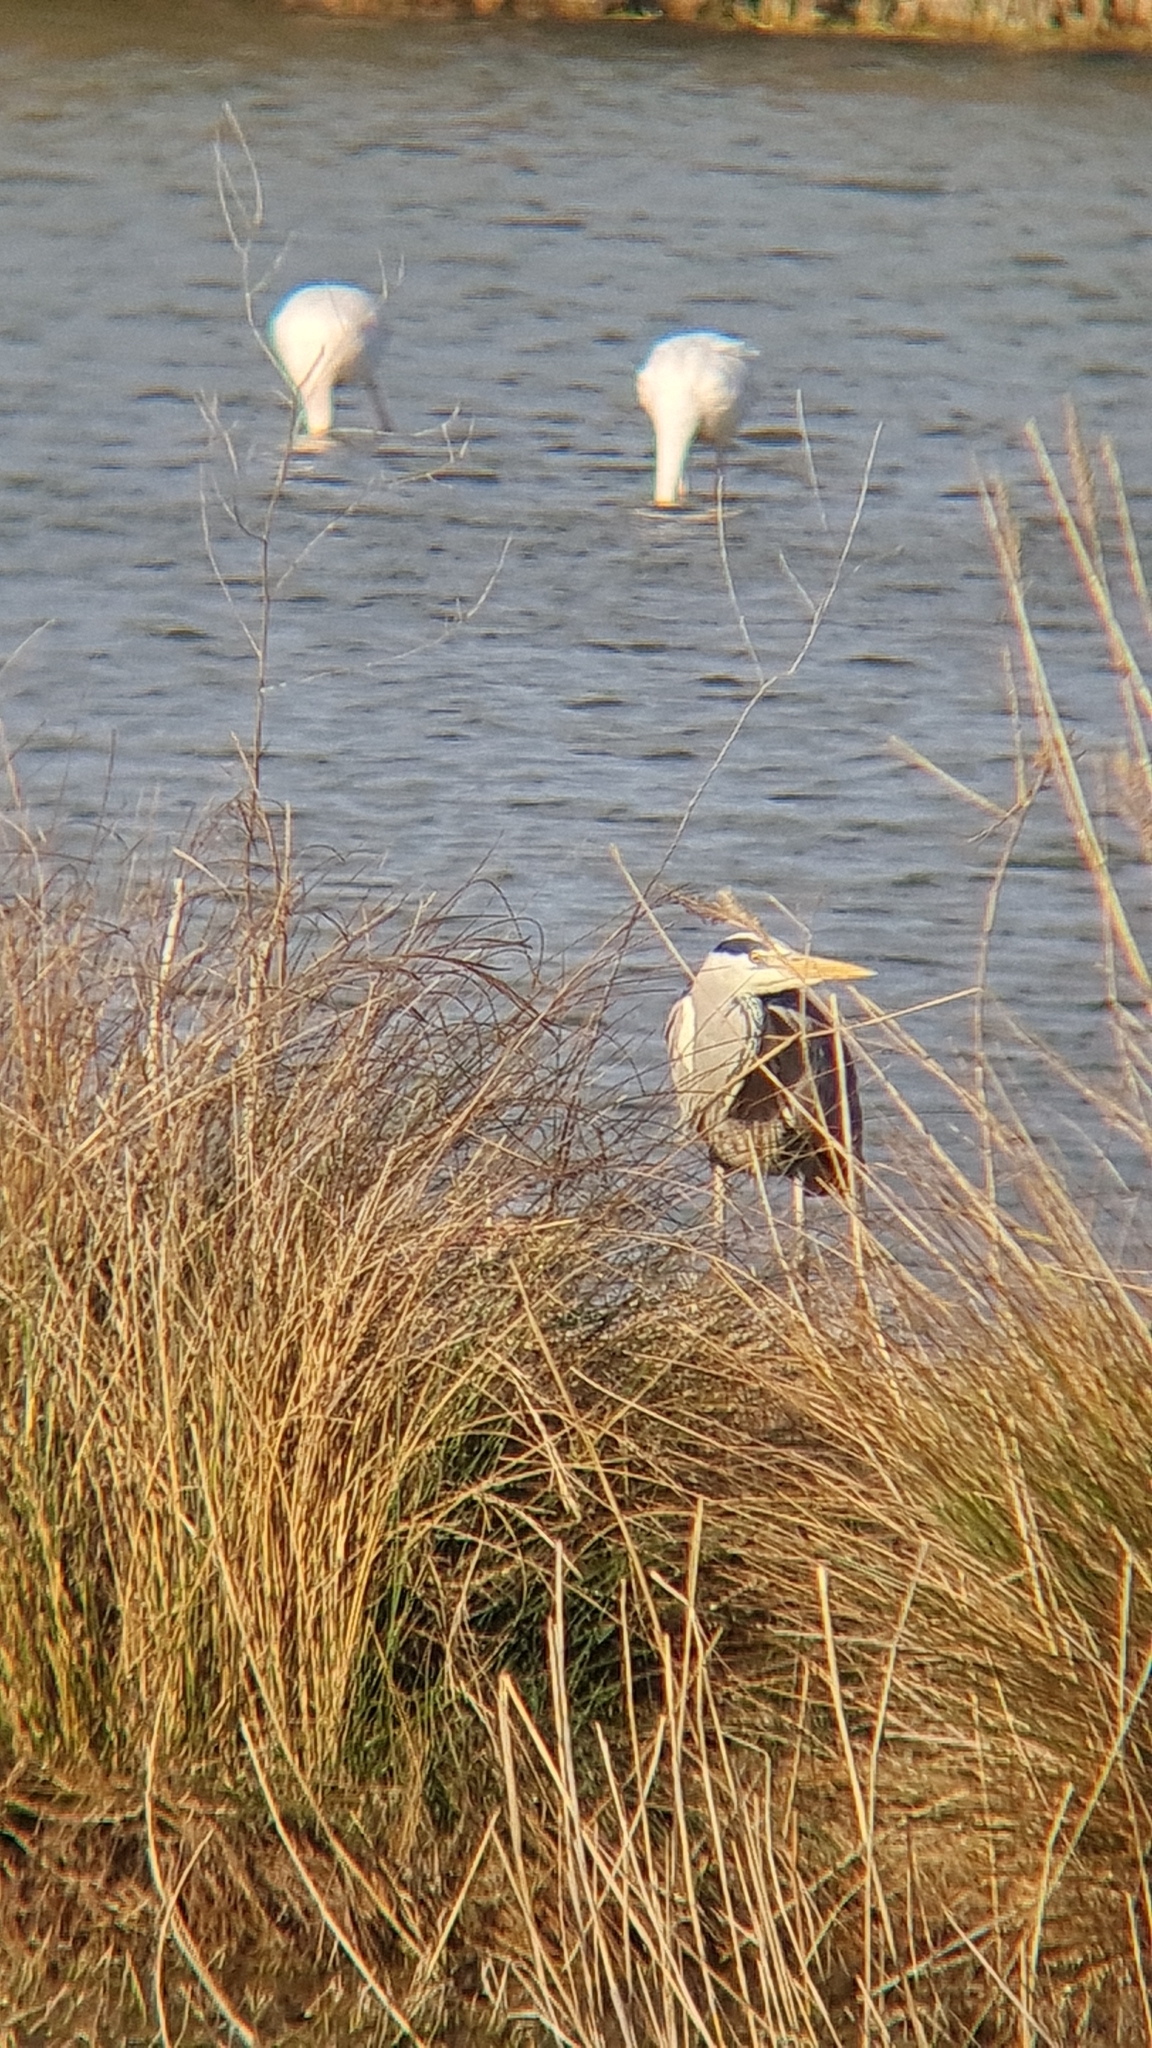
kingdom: Animalia
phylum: Chordata
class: Aves
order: Pelecaniformes
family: Ardeidae
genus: Ardea
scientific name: Ardea cinerea
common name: Grey heron
